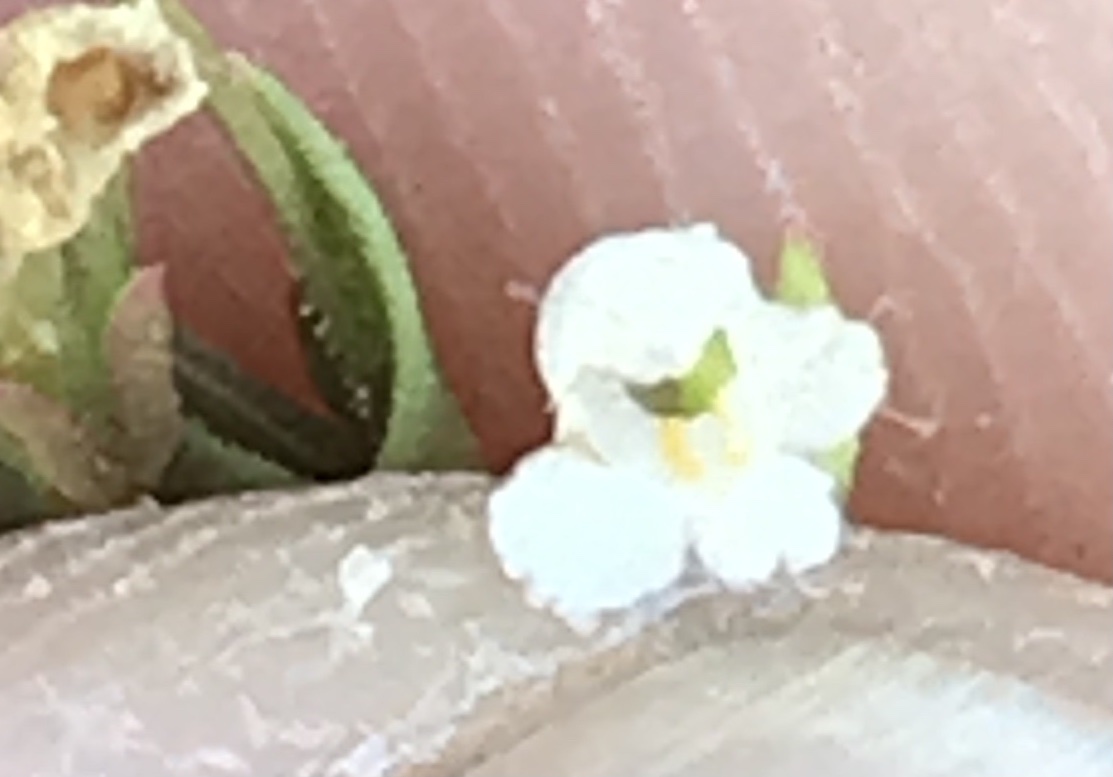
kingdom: Plantae
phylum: Tracheophyta
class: Magnoliopsida
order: Lamiales
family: Linderniaceae
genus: Lindernia
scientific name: Lindernia dubia
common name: Annual false pimpernel
